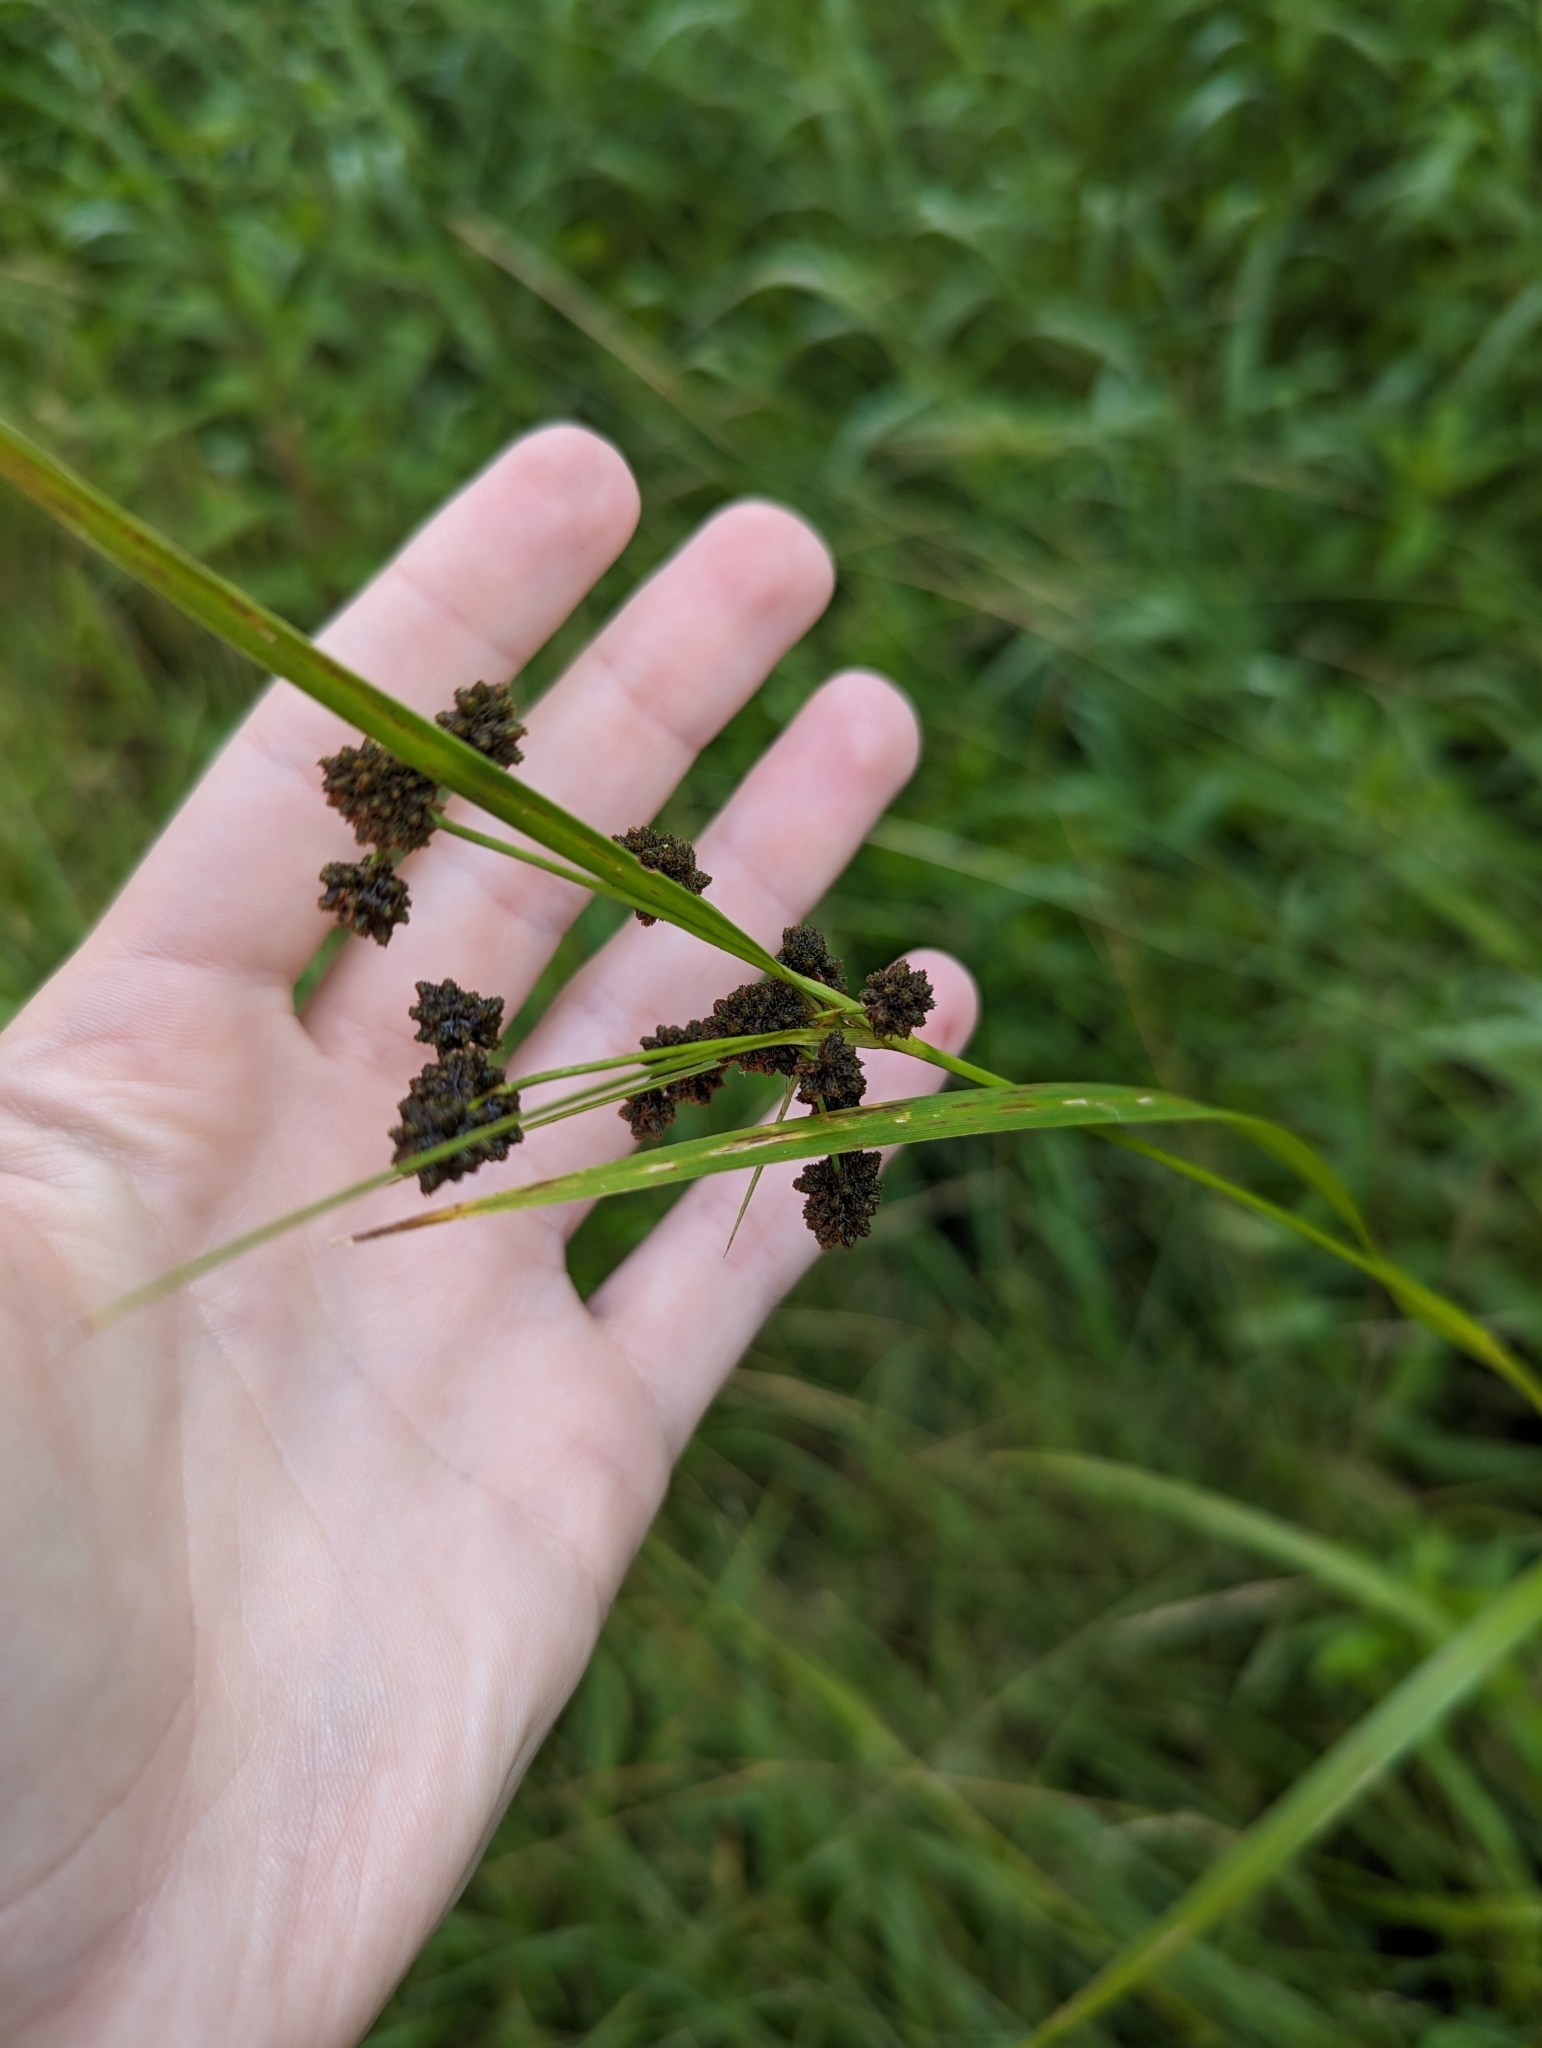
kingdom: Plantae
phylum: Tracheophyta
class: Liliopsida
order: Poales
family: Cyperaceae
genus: Scirpus
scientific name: Scirpus
